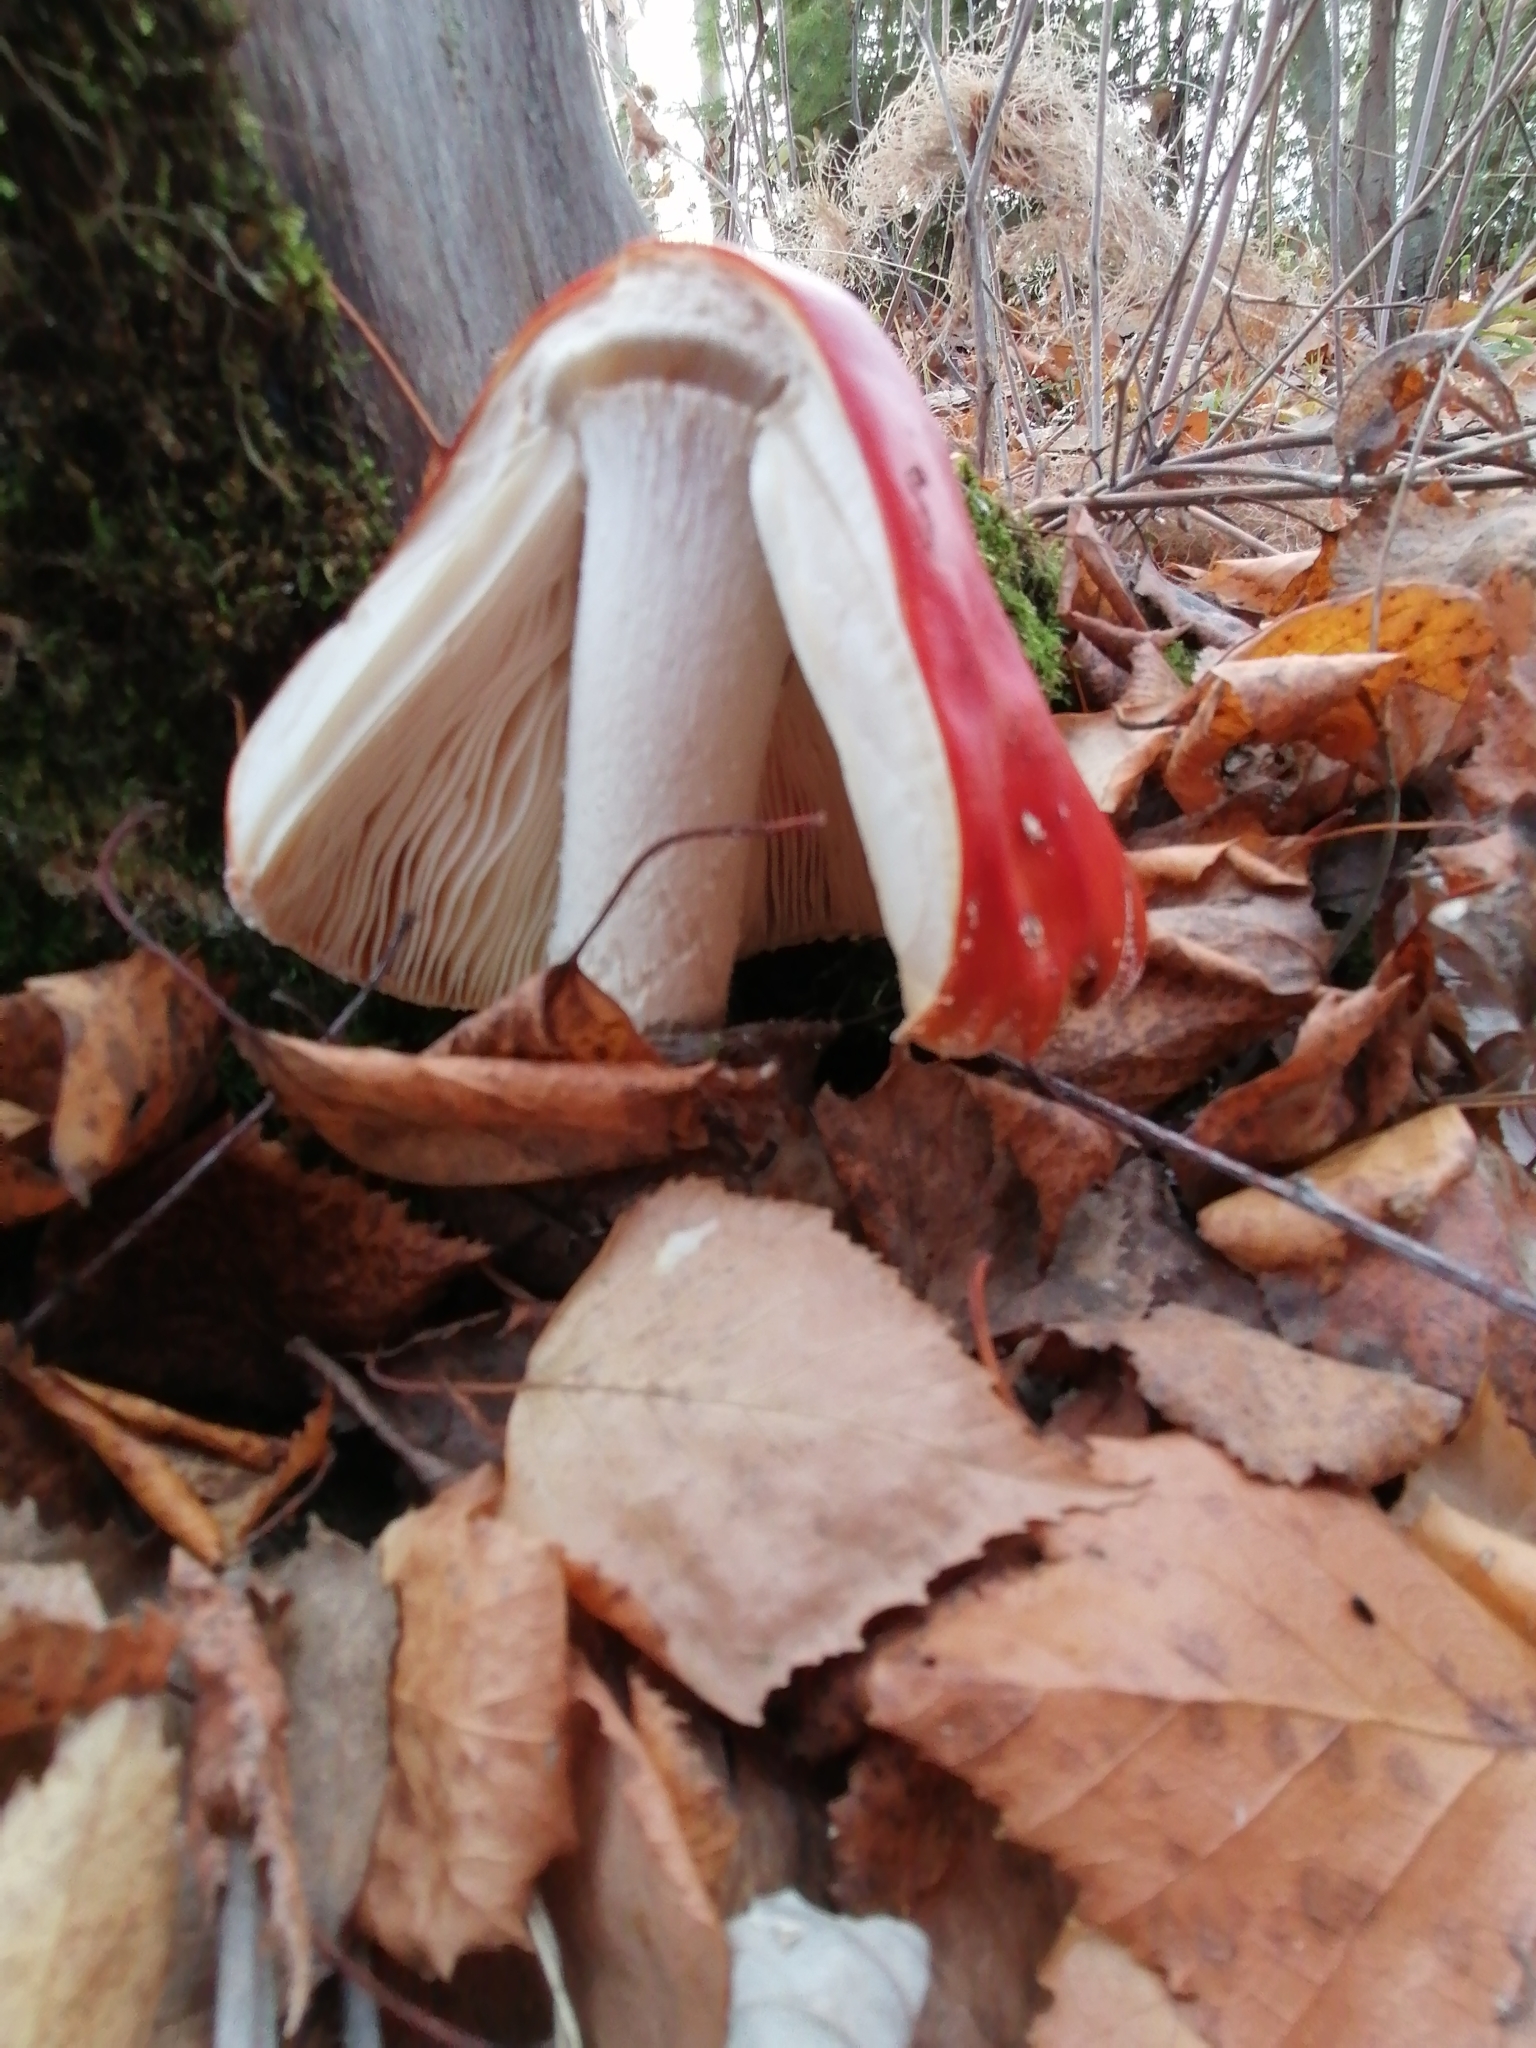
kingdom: Fungi
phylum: Basidiomycota
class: Agaricomycetes
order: Agaricales
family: Amanitaceae
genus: Amanita
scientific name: Amanita muscaria
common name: Fly agaric
